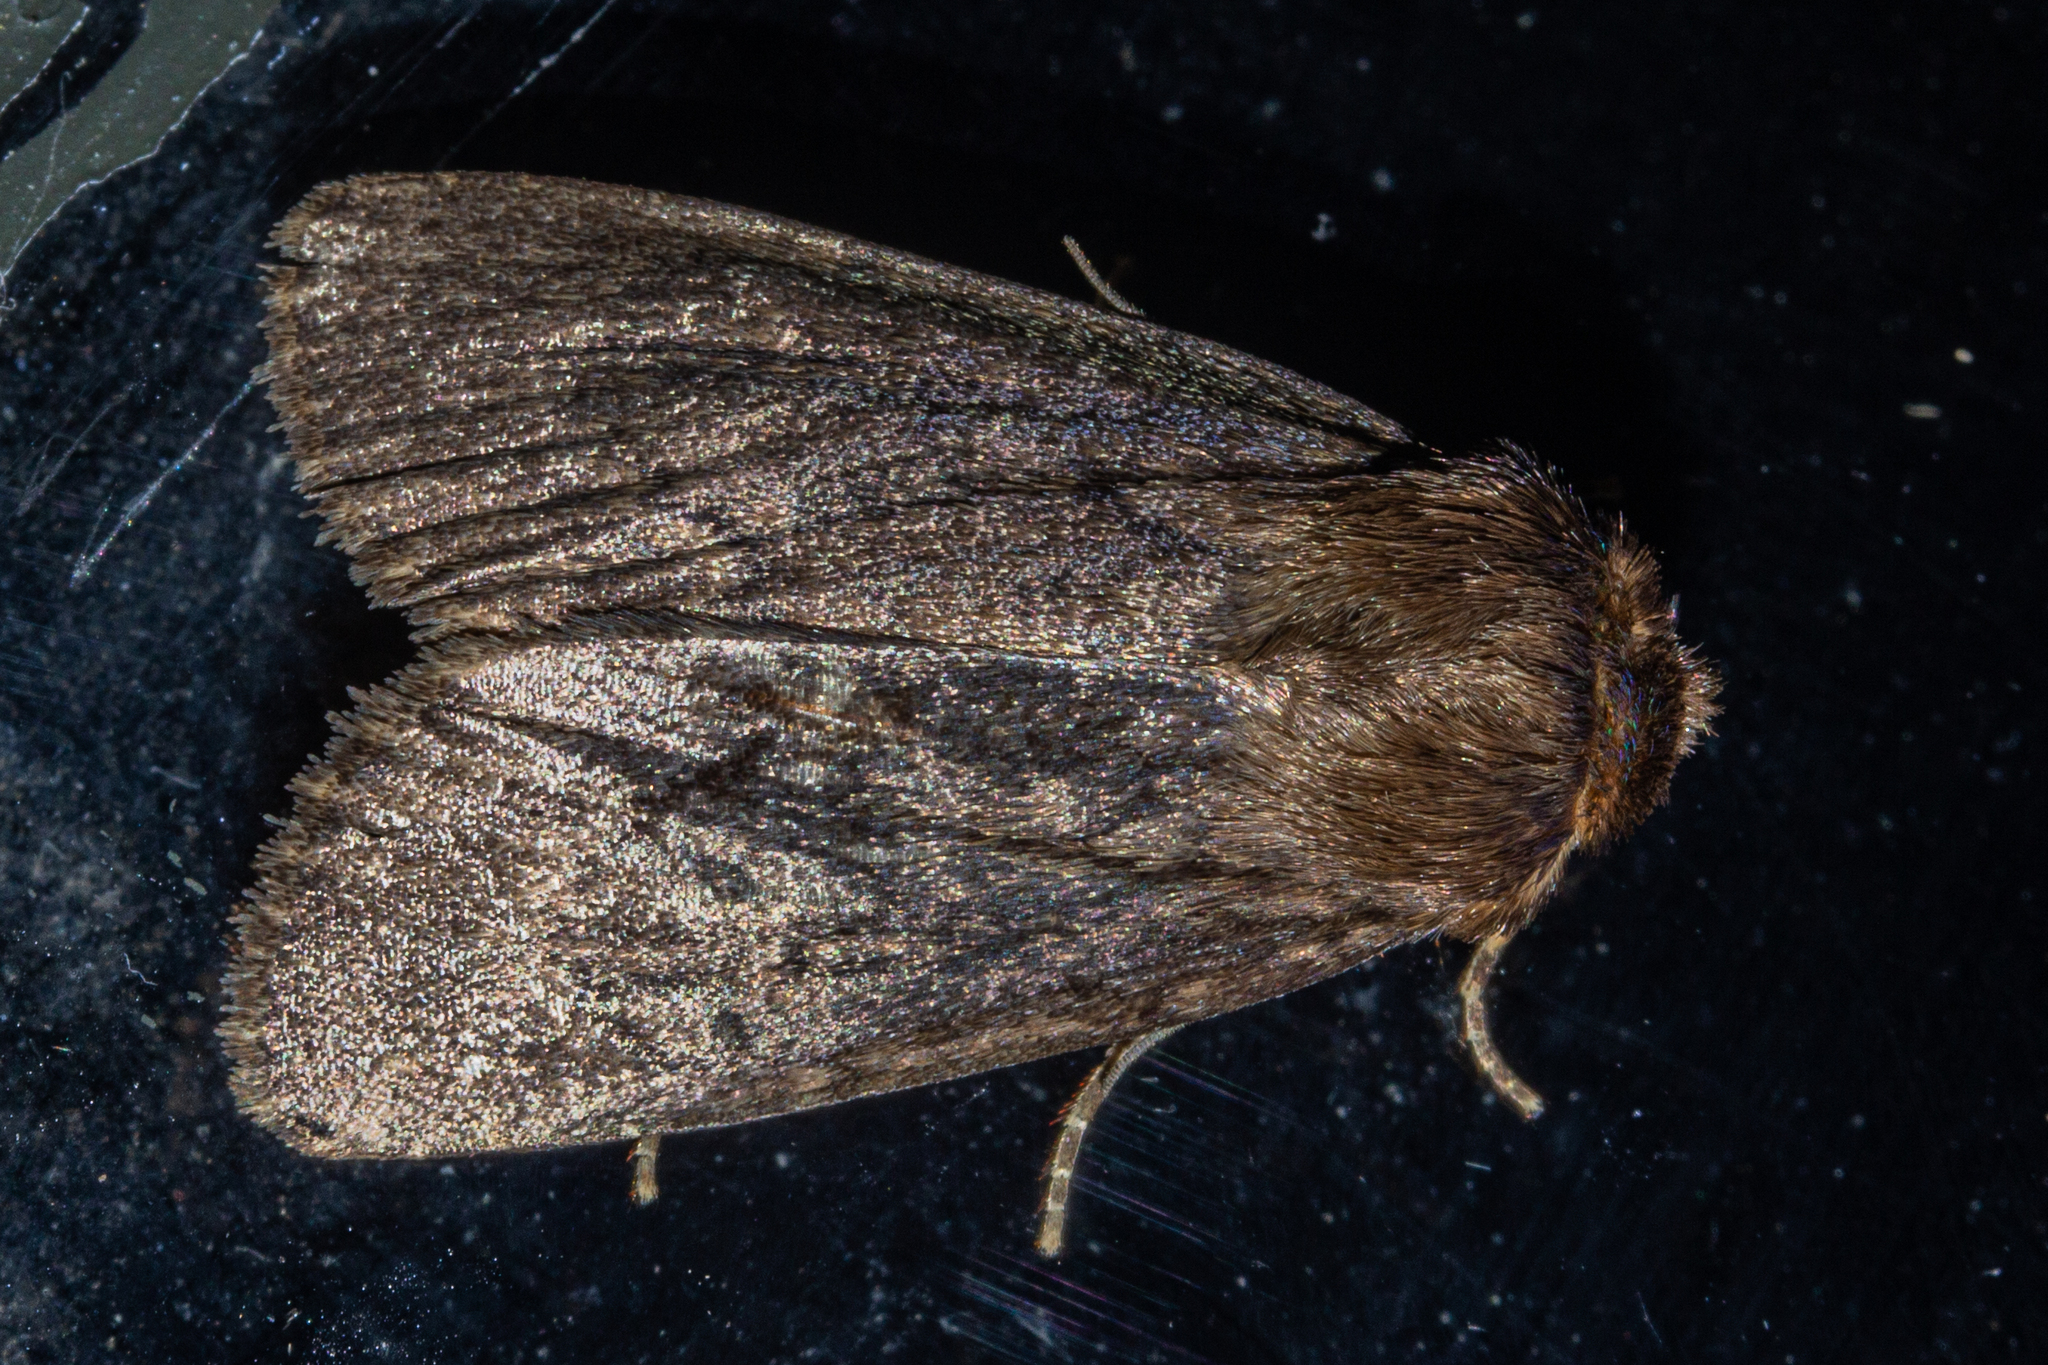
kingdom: Animalia
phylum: Arthropoda
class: Insecta
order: Lepidoptera
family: Noctuidae
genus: Bityla
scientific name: Bityla defigurata
